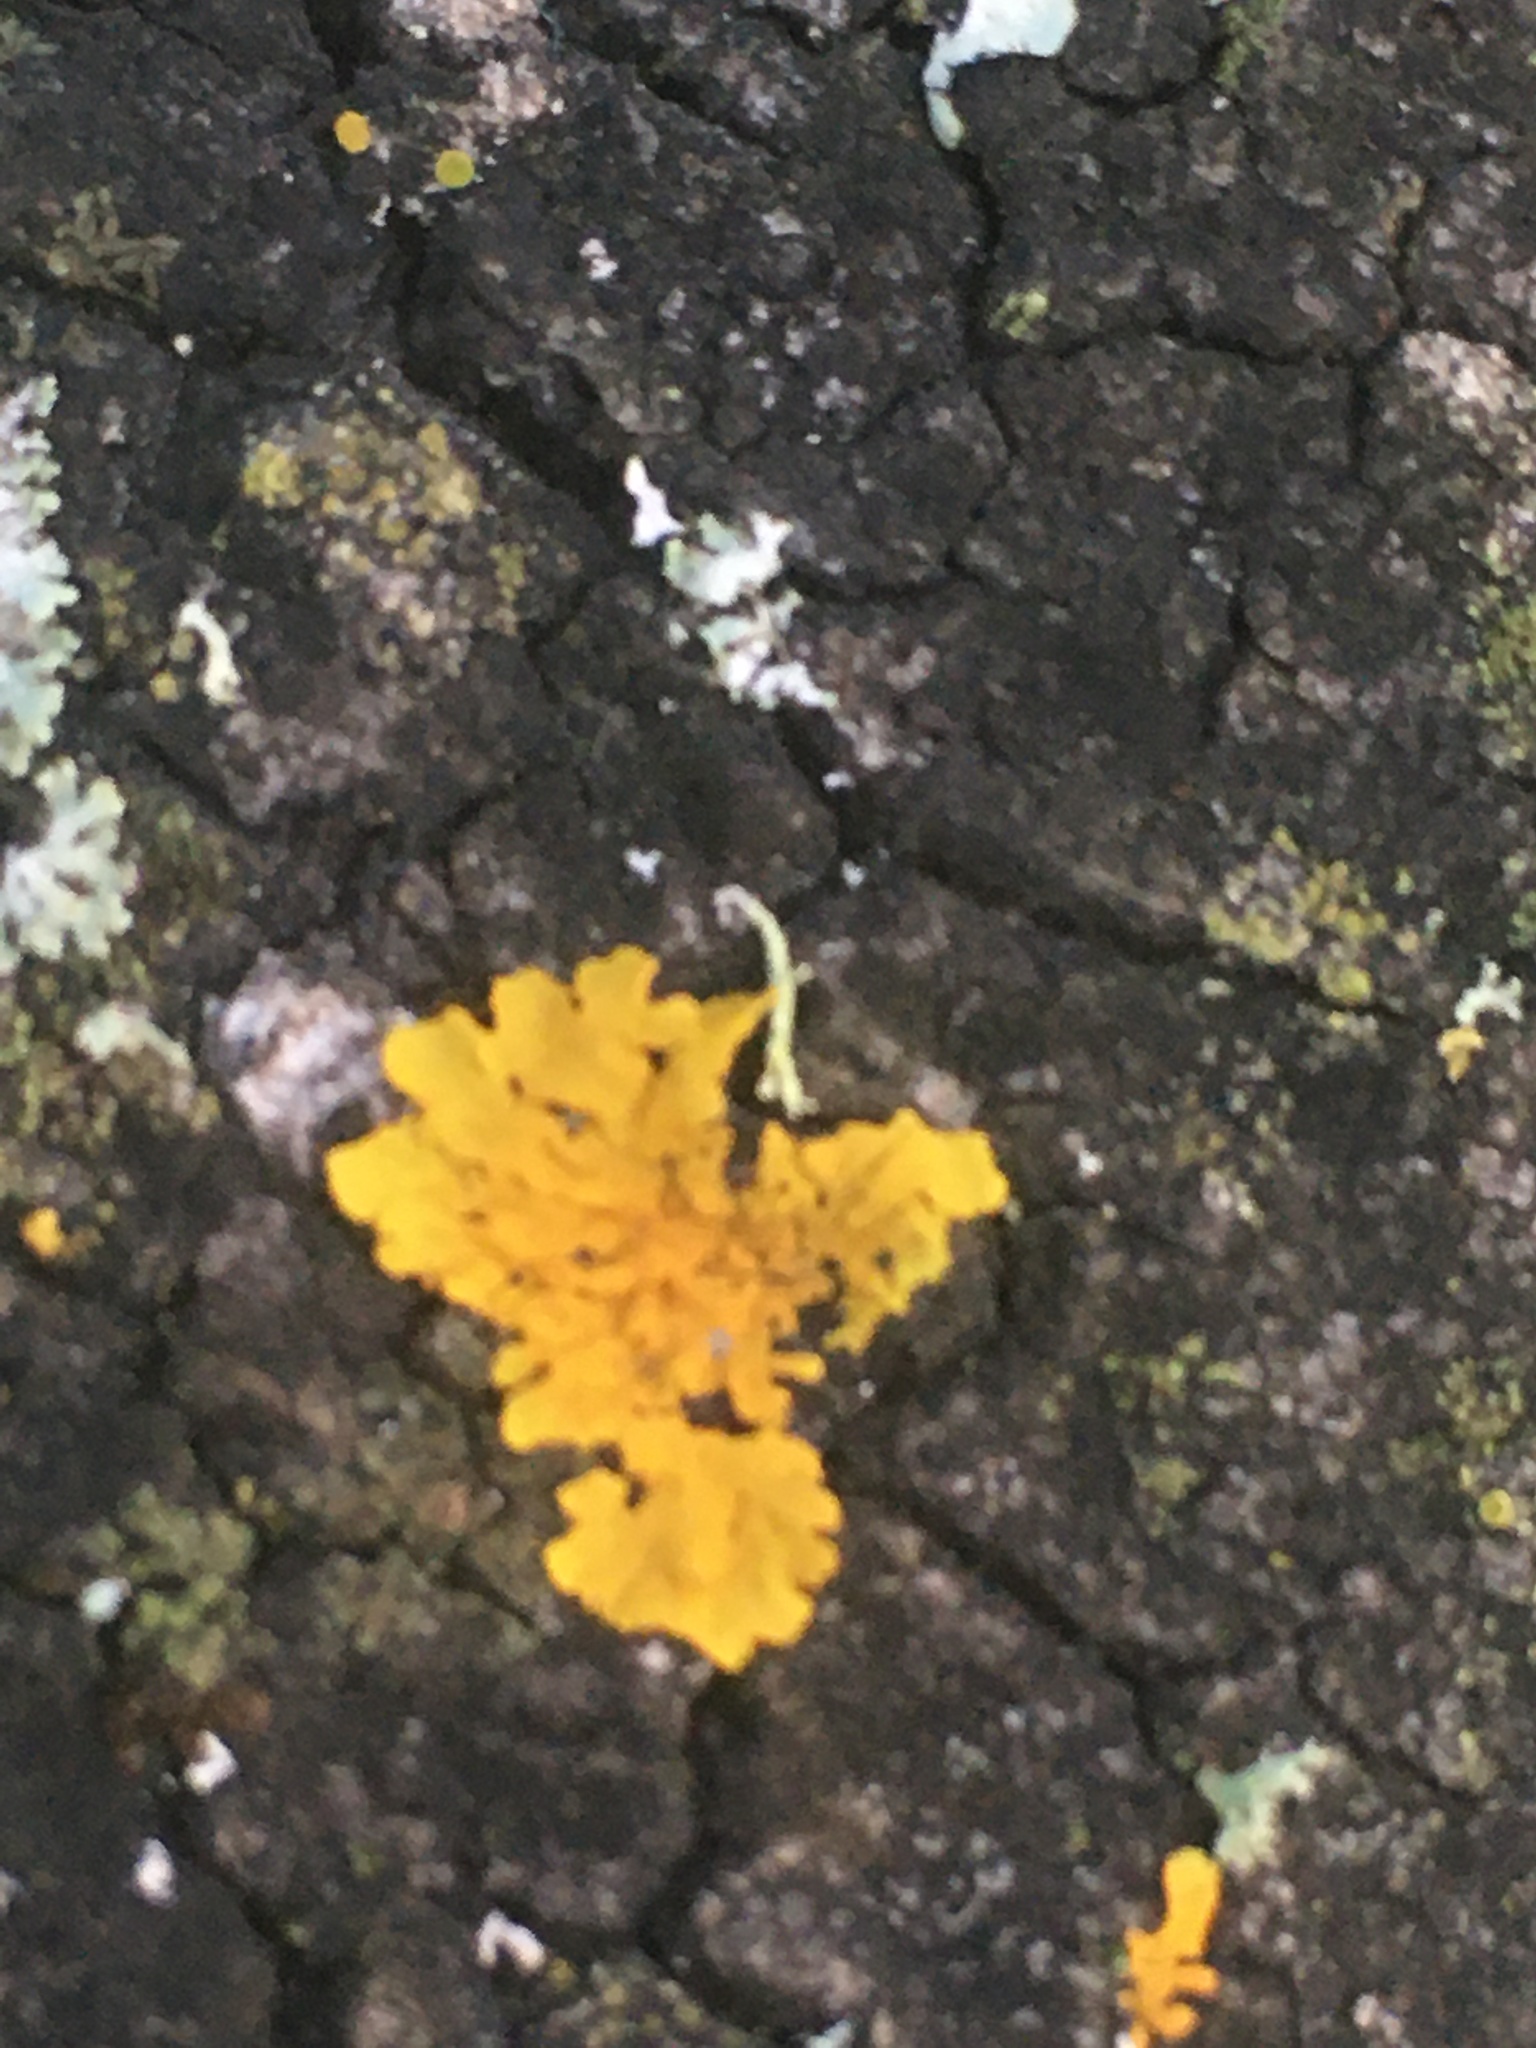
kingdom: Fungi
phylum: Ascomycota
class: Lecanoromycetes
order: Teloschistales
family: Teloschistaceae
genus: Xanthoria
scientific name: Xanthoria parietina
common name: Common orange lichen
